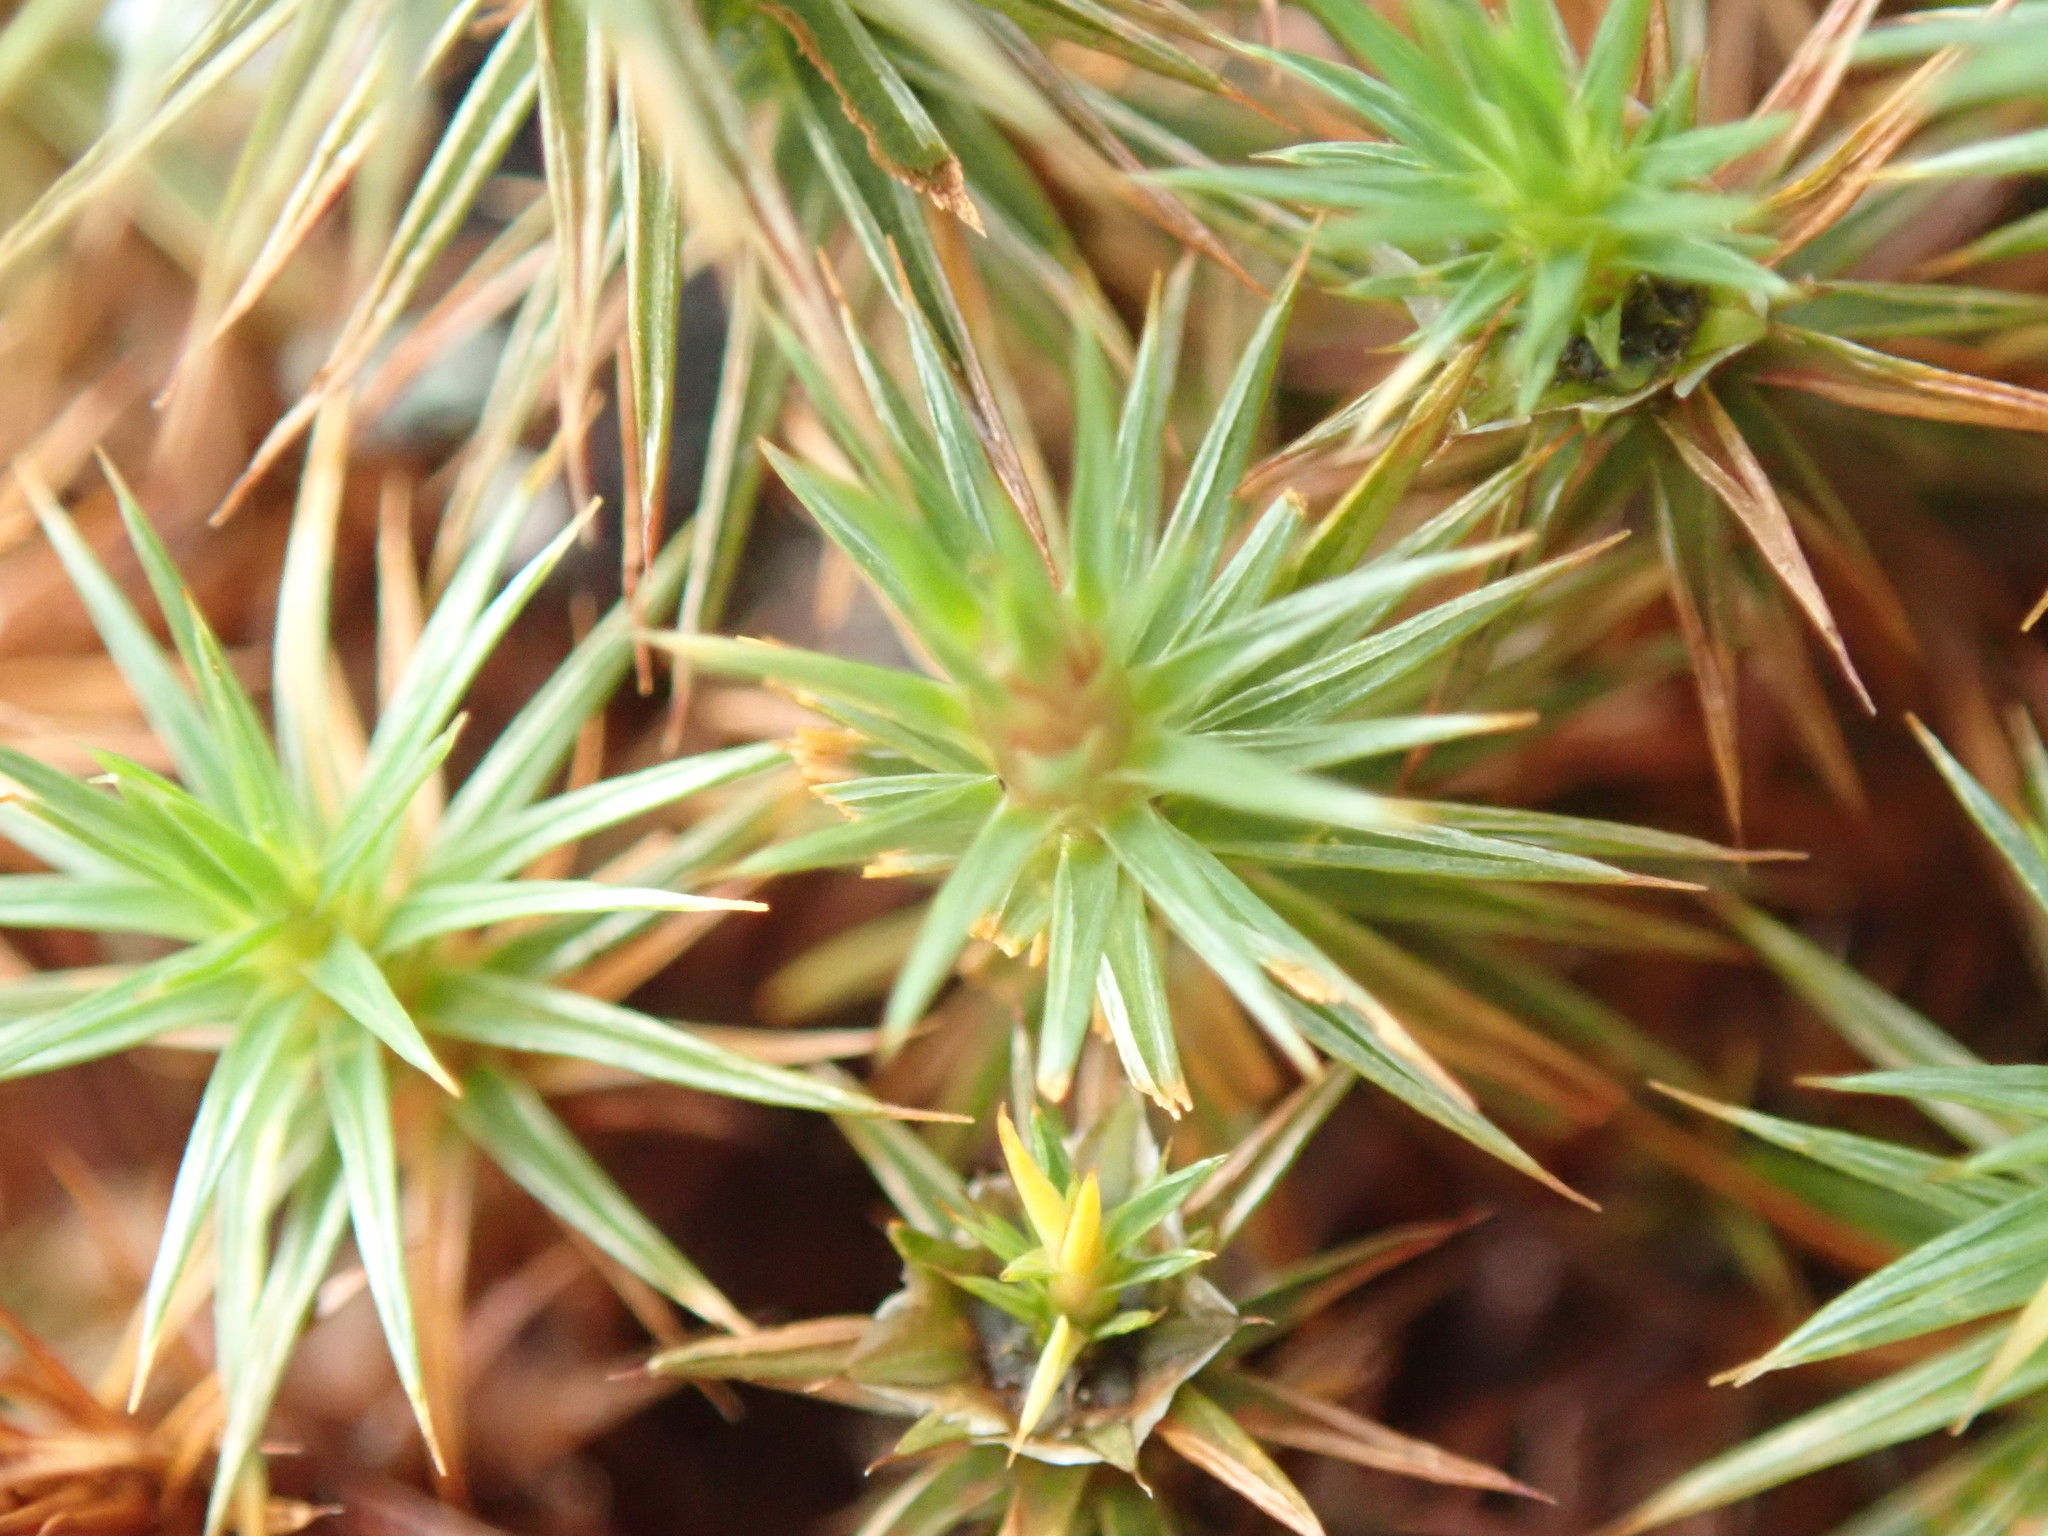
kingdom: Plantae
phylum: Bryophyta
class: Polytrichopsida
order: Polytrichales
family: Polytrichaceae
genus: Polytrichum
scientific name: Polytrichum juniperinum
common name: Juniper haircap moss
